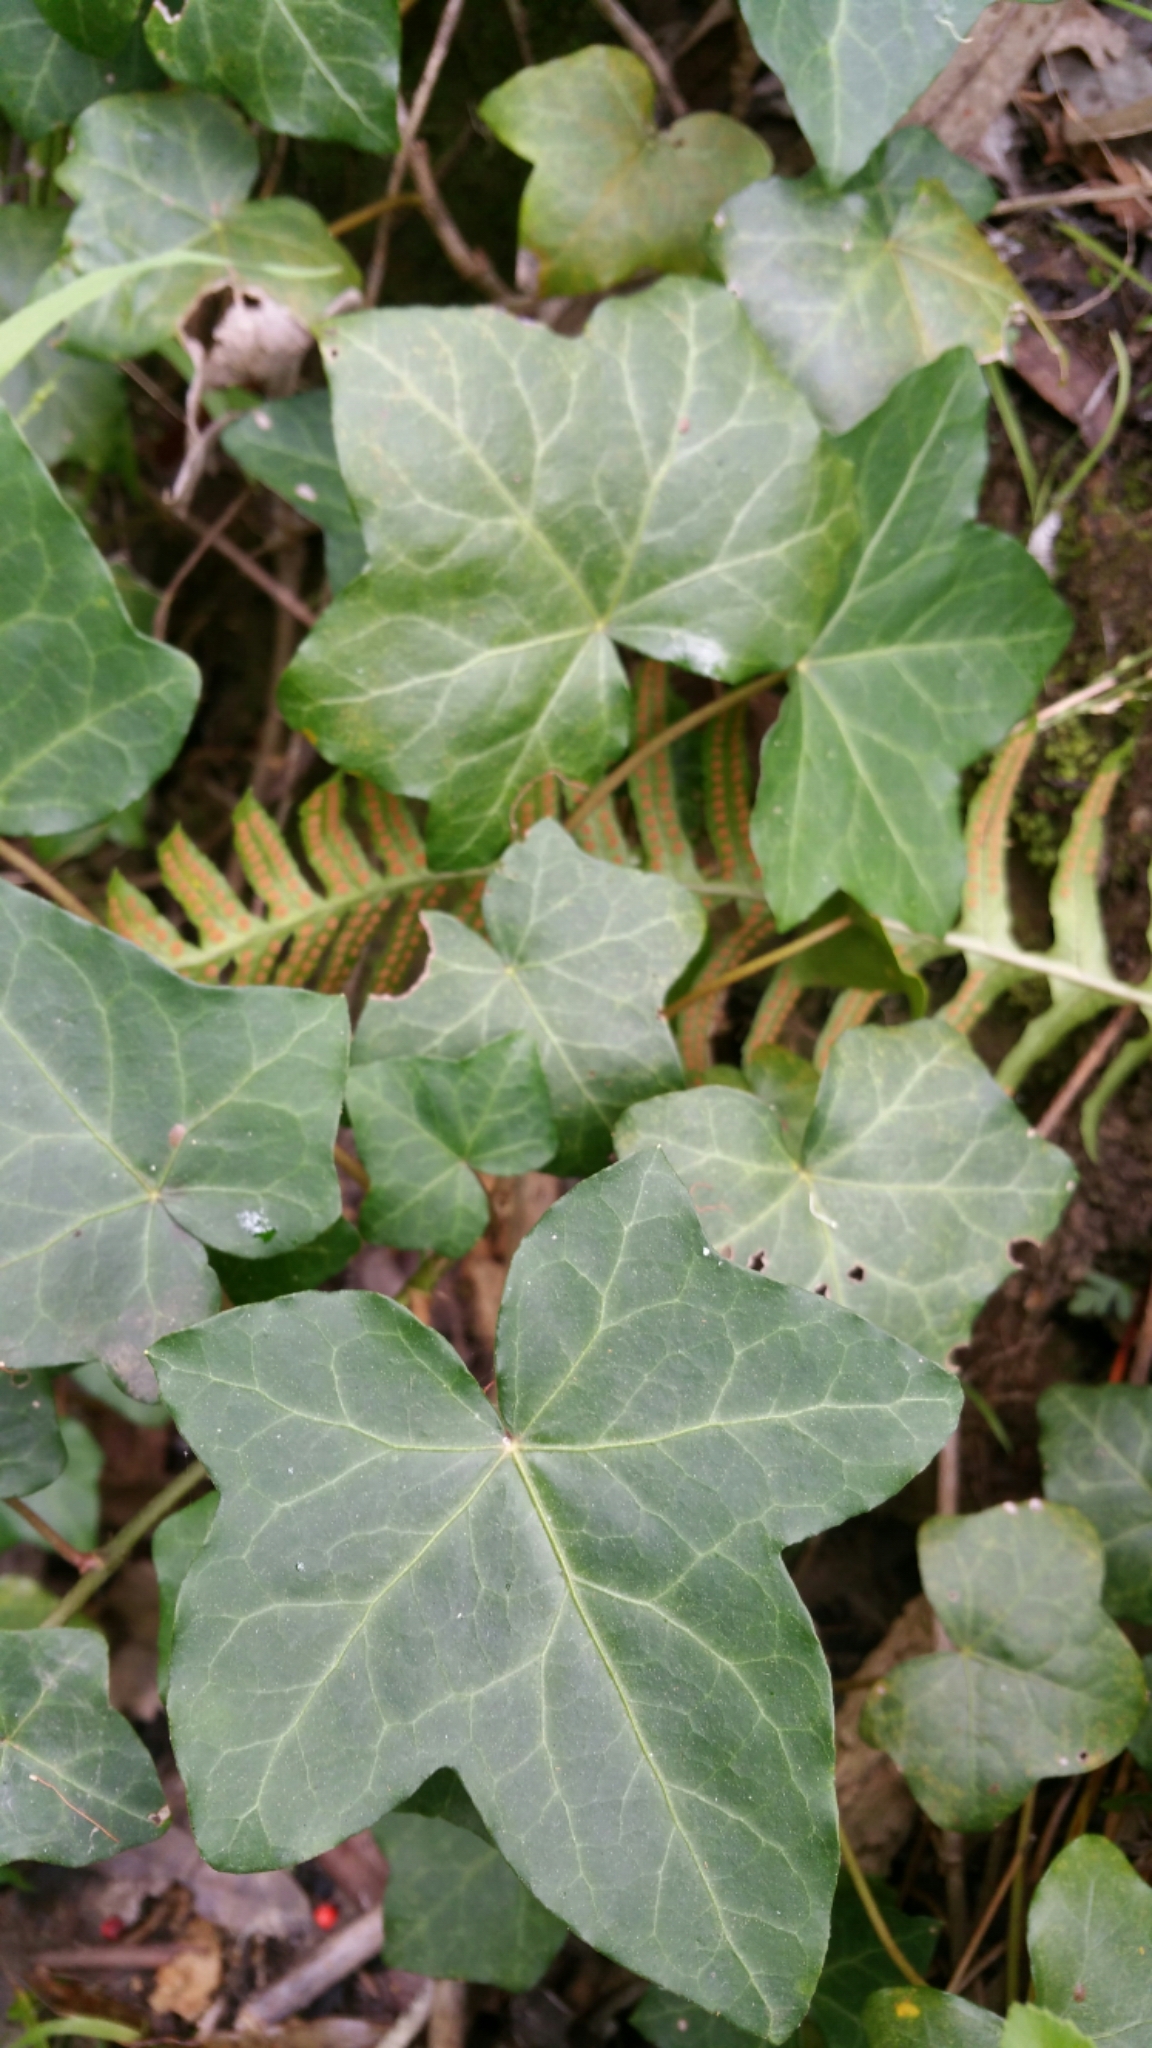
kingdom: Plantae
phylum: Tracheophyta
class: Magnoliopsida
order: Apiales
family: Araliaceae
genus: Hedera
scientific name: Hedera canariensis
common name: Madeira ivy
